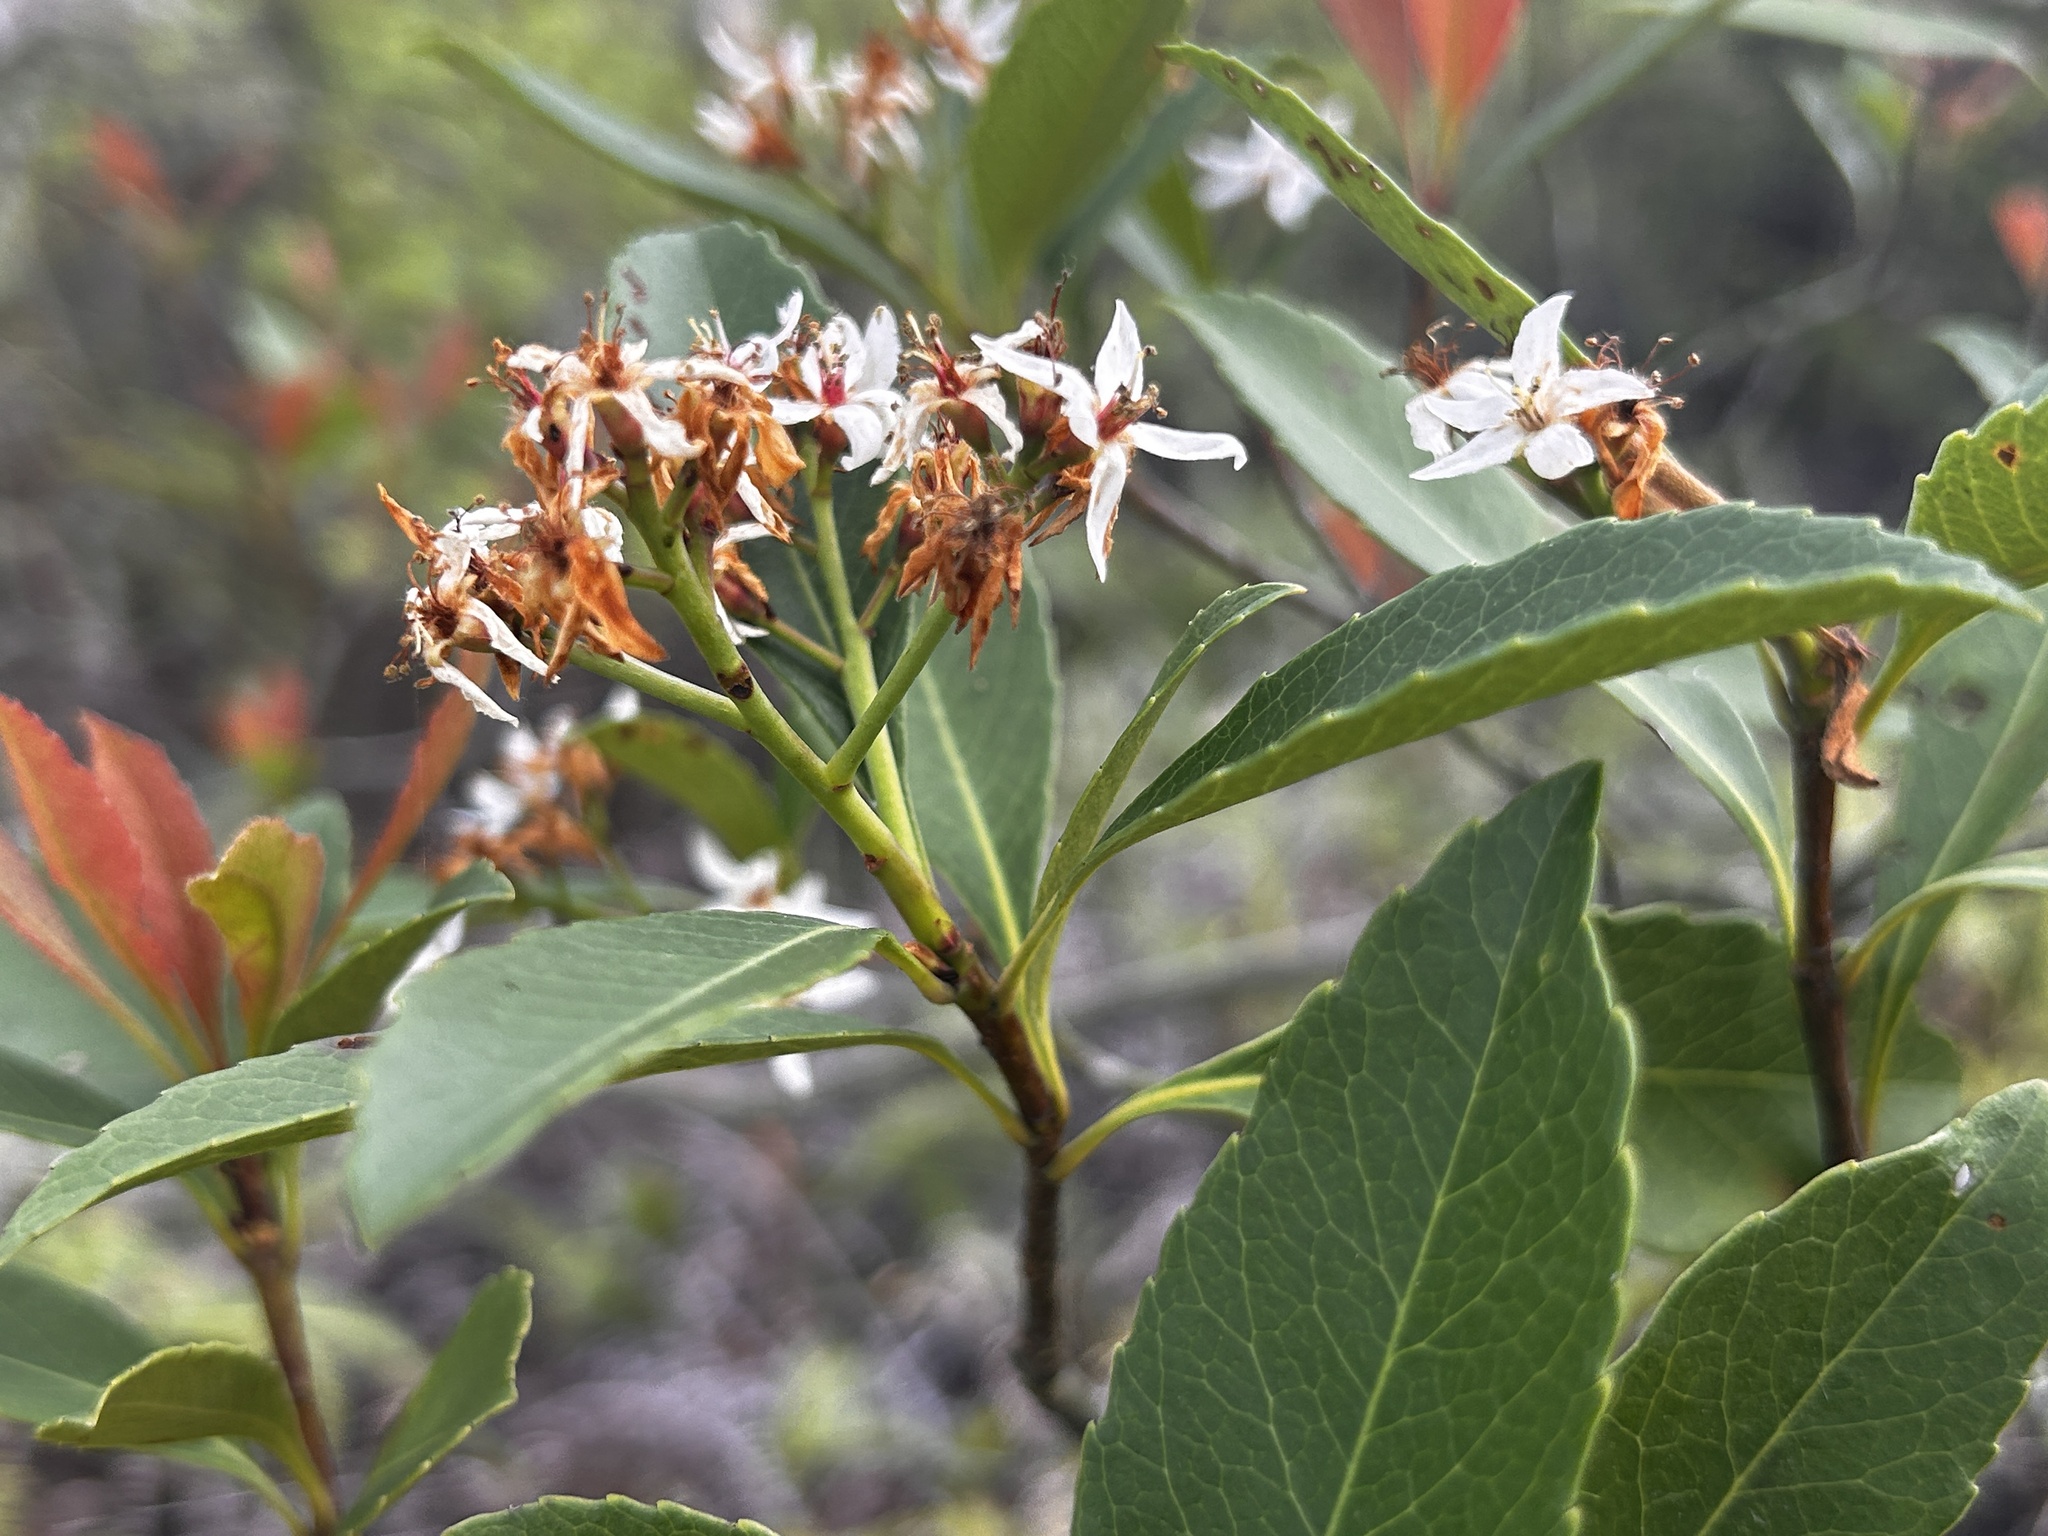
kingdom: Plantae
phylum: Tracheophyta
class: Magnoliopsida
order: Rosales
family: Rosaceae
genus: Rhaphiolepis
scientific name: Rhaphiolepis indica
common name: India-hawthorn
